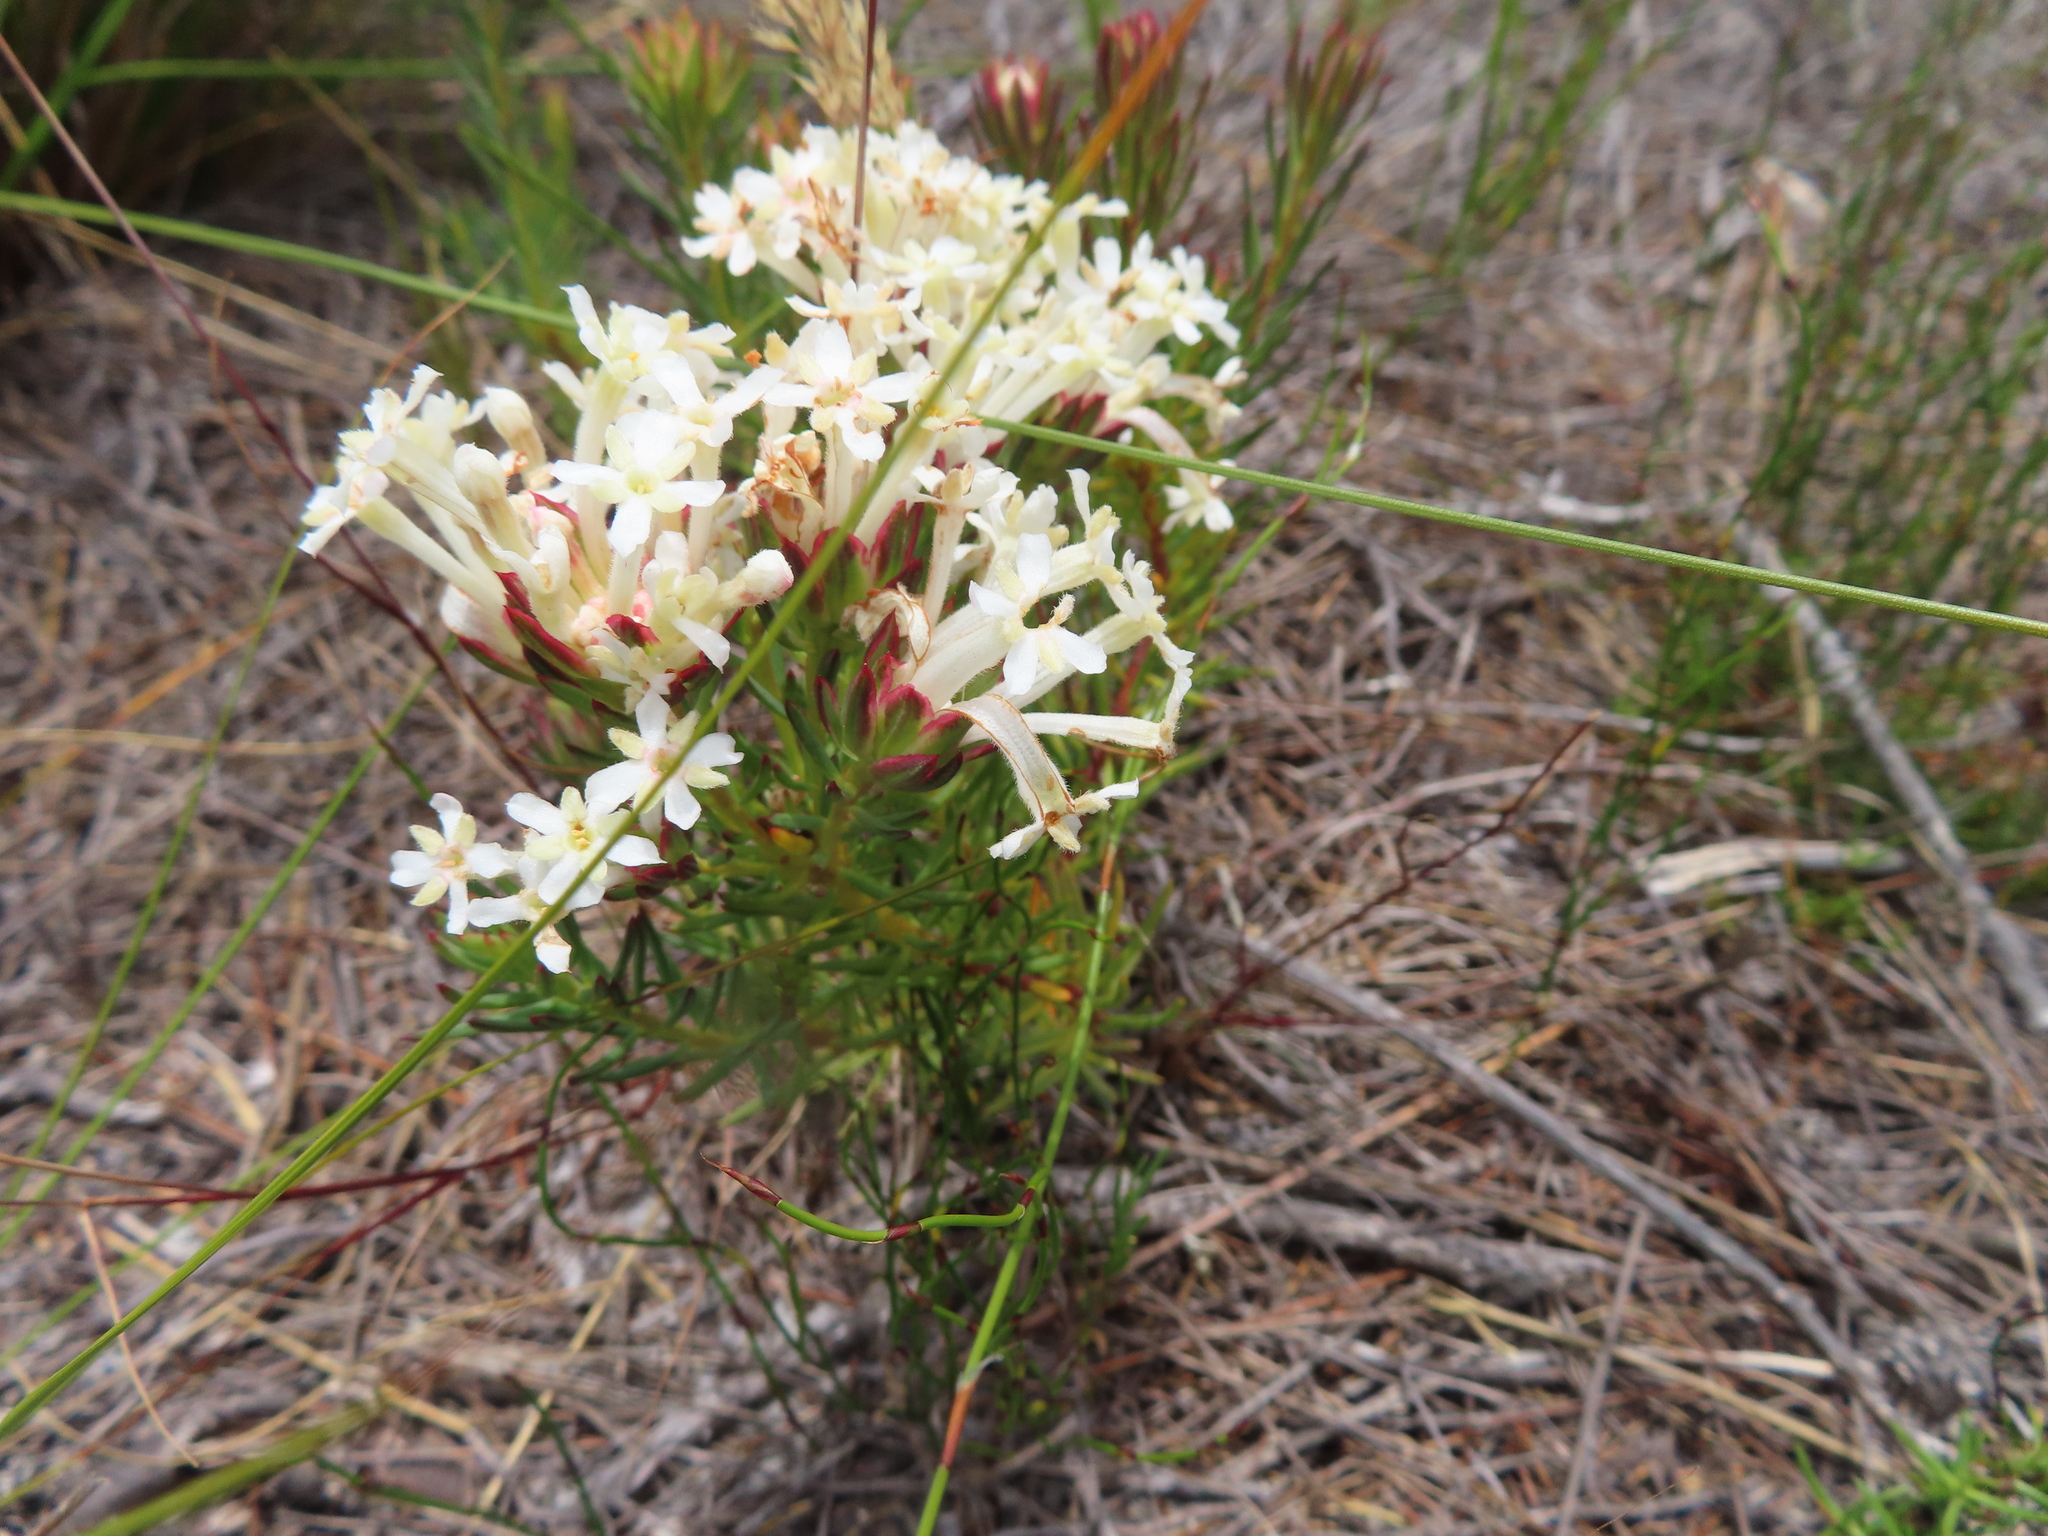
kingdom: Plantae
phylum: Tracheophyta
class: Magnoliopsida
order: Malvales
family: Thymelaeaceae
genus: Gnidia
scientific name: Gnidia pinifolia
